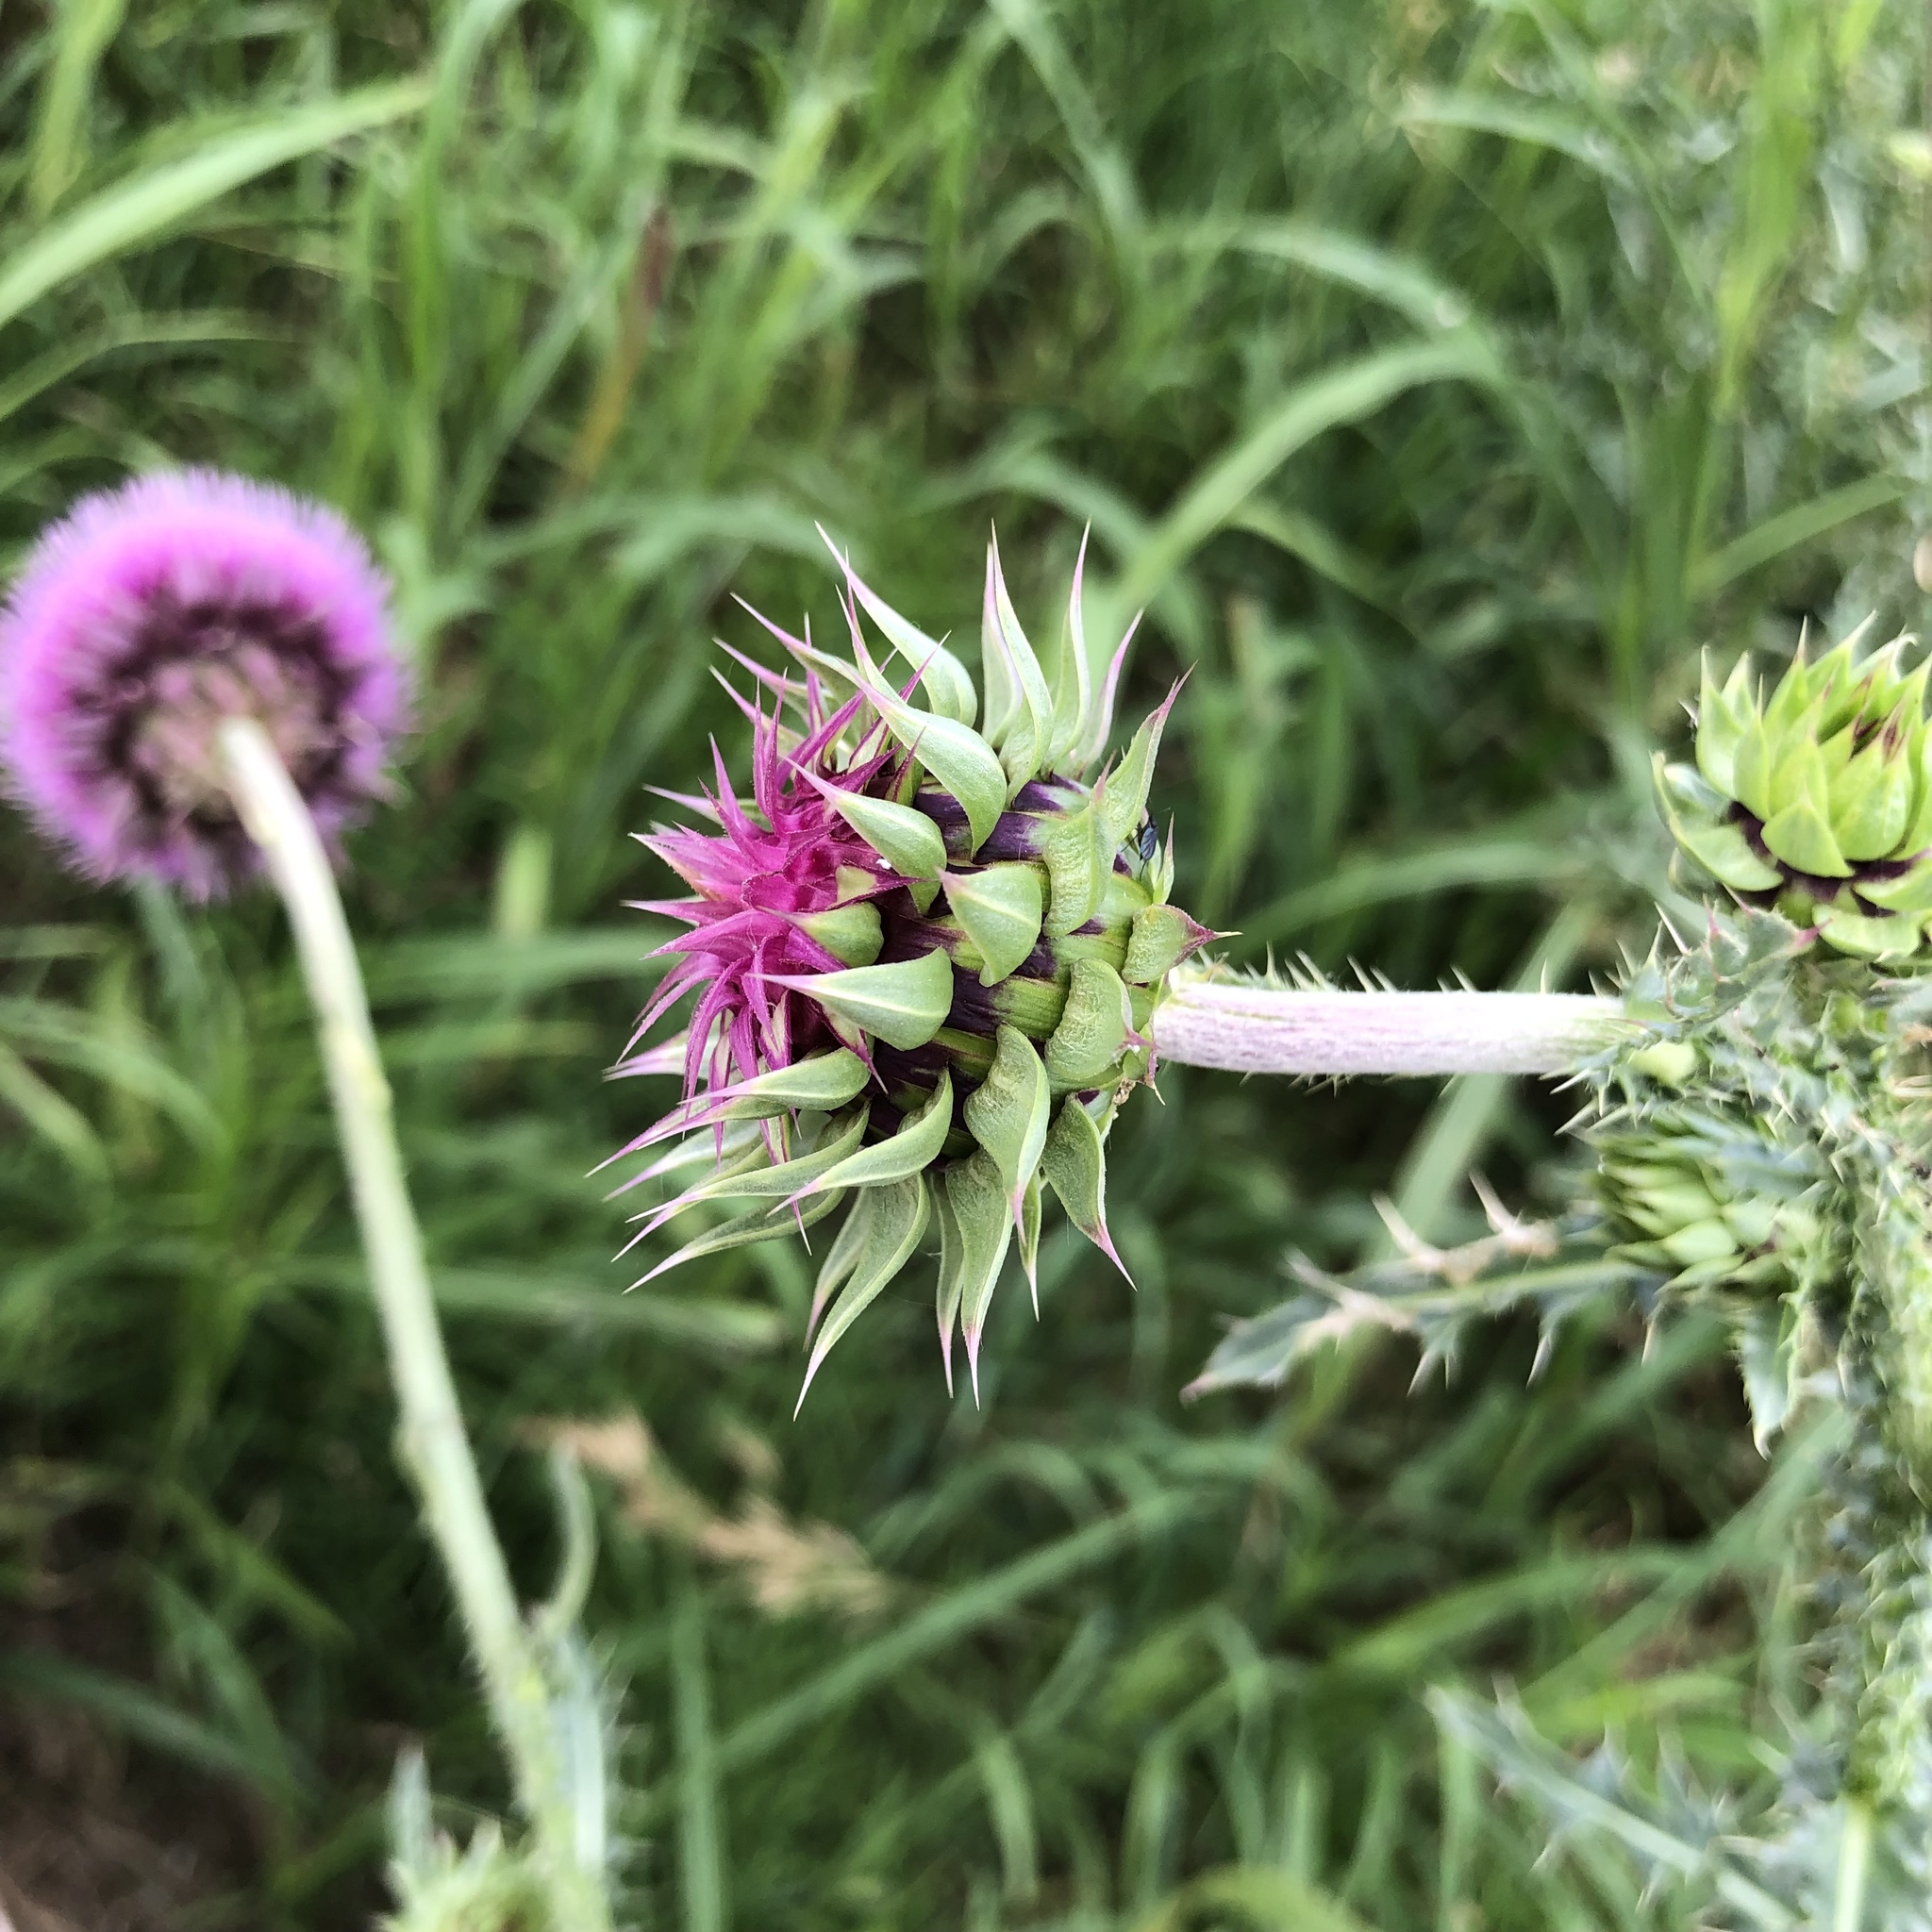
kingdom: Plantae
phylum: Tracheophyta
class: Magnoliopsida
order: Asterales
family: Asteraceae
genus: Carduus
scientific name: Carduus nutans
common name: Musk thistle
